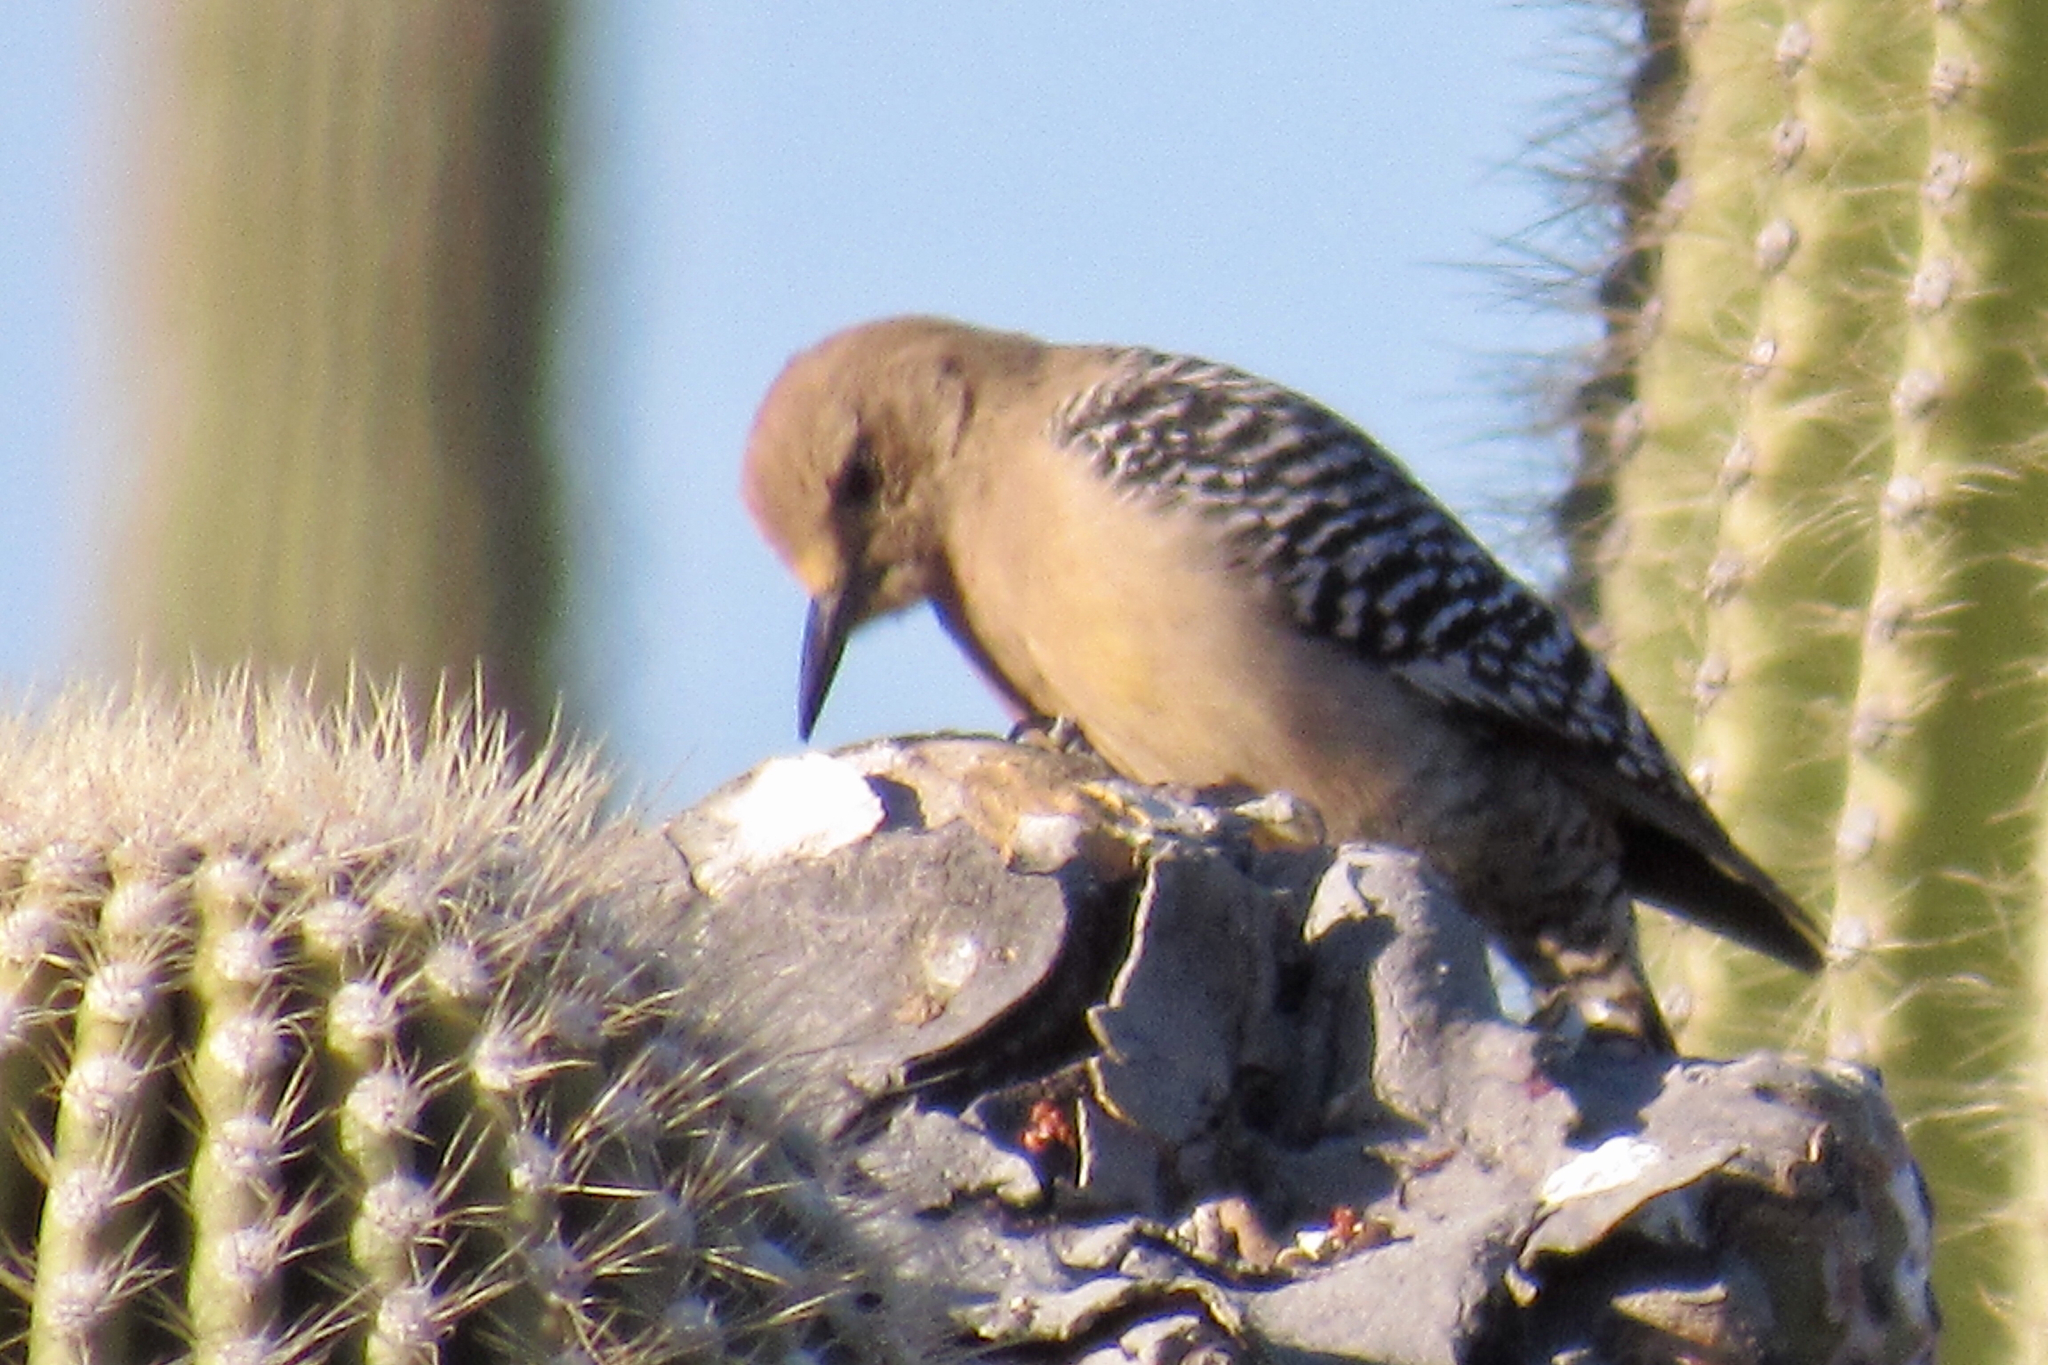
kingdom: Animalia
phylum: Chordata
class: Aves
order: Piciformes
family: Picidae
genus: Melanerpes
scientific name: Melanerpes uropygialis
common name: Gila woodpecker
